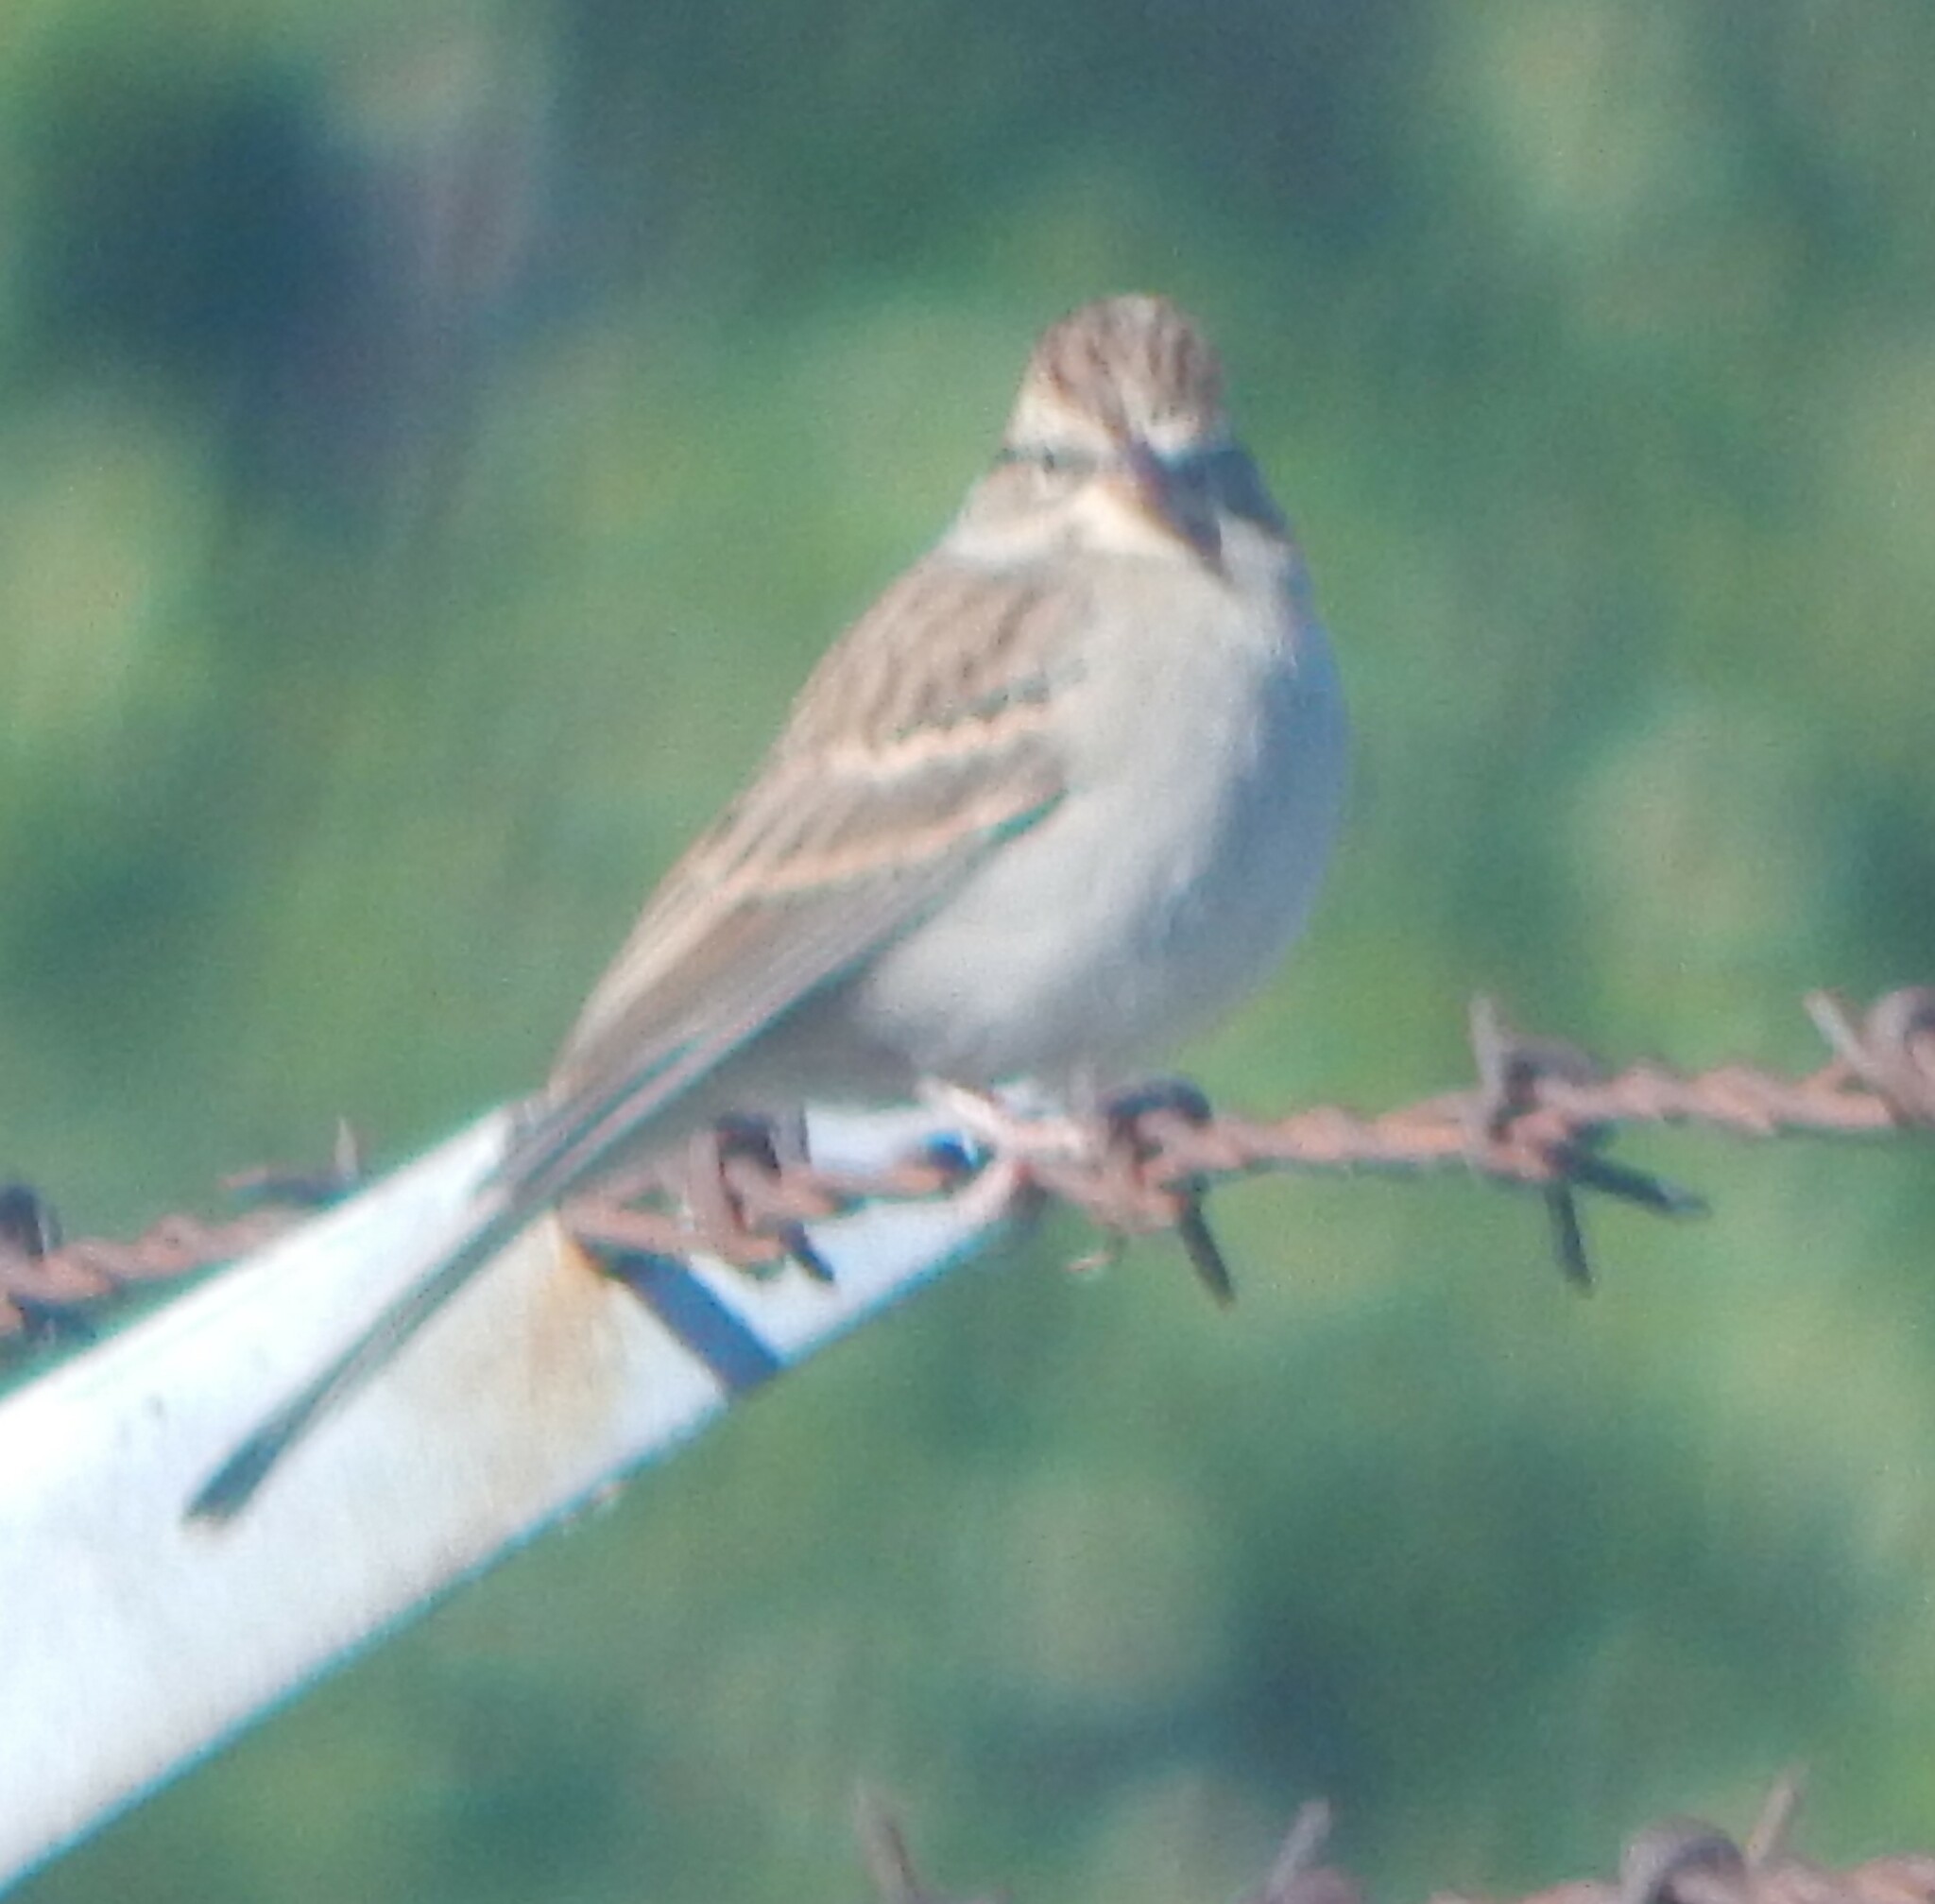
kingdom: Animalia
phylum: Chordata
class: Aves
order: Passeriformes
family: Passerellidae
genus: Spizella
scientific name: Spizella passerina
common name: Chipping sparrow
